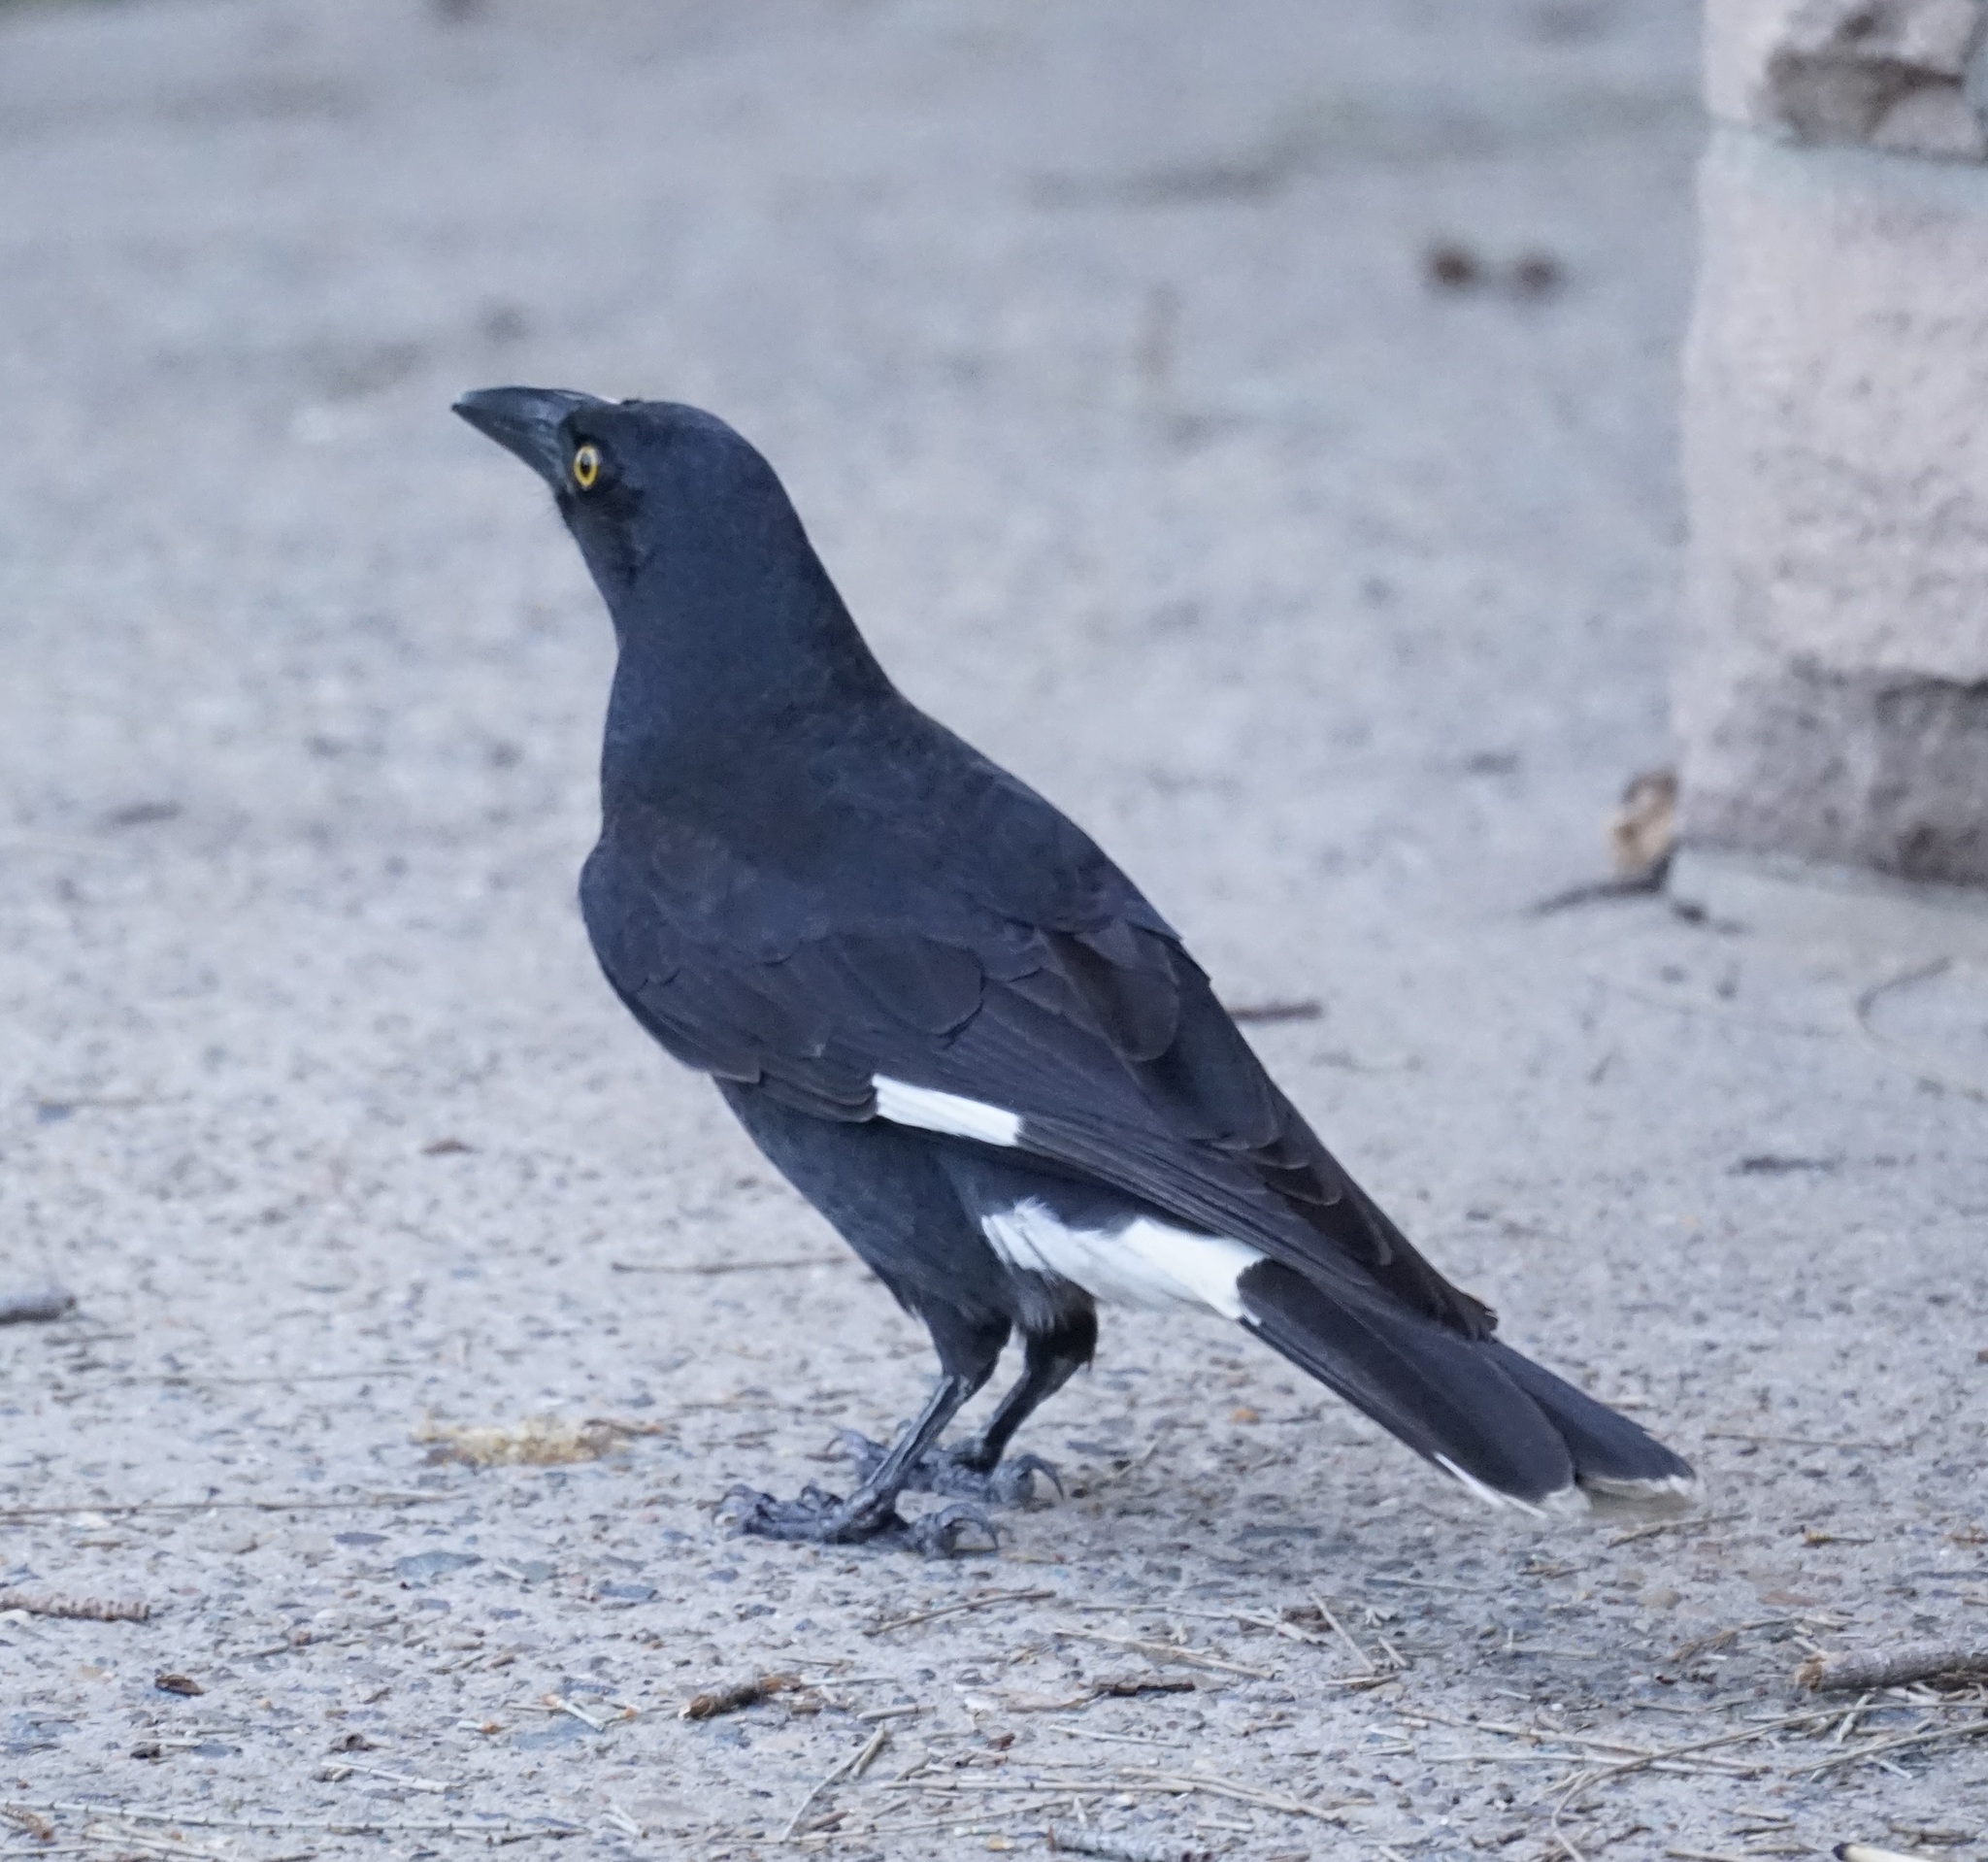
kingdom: Animalia
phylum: Chordata
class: Aves
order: Passeriformes
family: Cracticidae
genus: Strepera
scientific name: Strepera graculina
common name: Pied currawong
